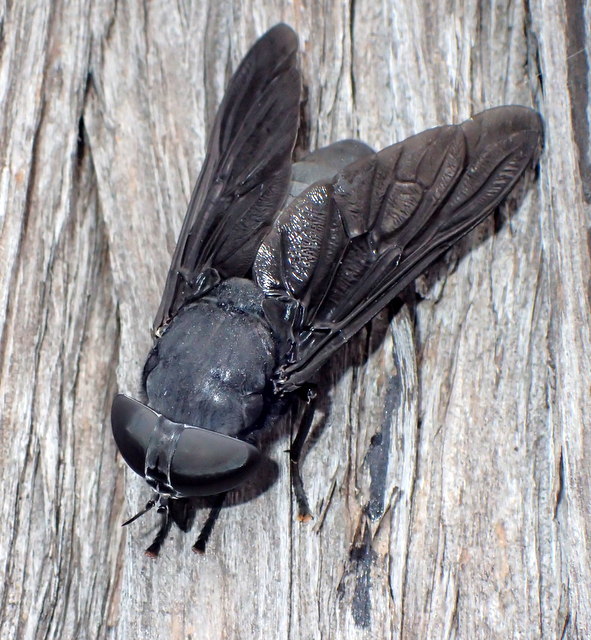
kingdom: Animalia
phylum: Arthropoda
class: Insecta
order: Diptera
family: Tabanidae
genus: Tabanus
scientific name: Tabanus atratus
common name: Black horse fly
